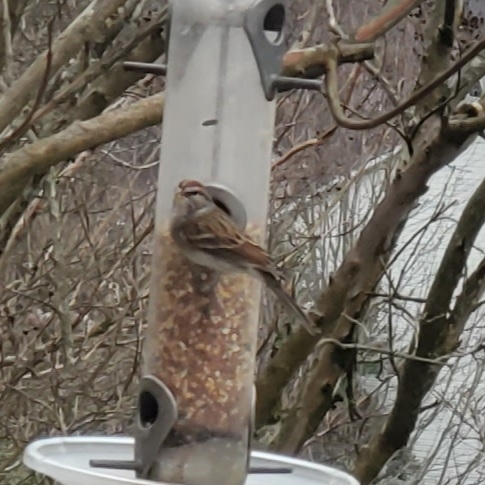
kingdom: Animalia
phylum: Chordata
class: Aves
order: Passeriformes
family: Passerellidae
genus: Spizella
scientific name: Spizella passerina
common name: Chipping sparrow
